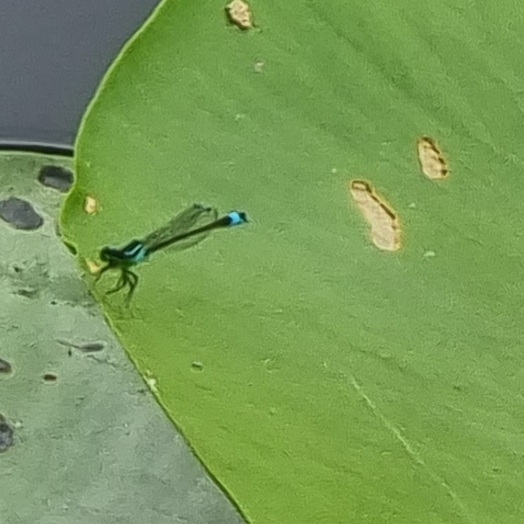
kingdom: Animalia
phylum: Arthropoda
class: Insecta
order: Odonata
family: Coenagrionidae
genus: Ischnura
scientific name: Ischnura elegans
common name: Blue-tailed damselfly
